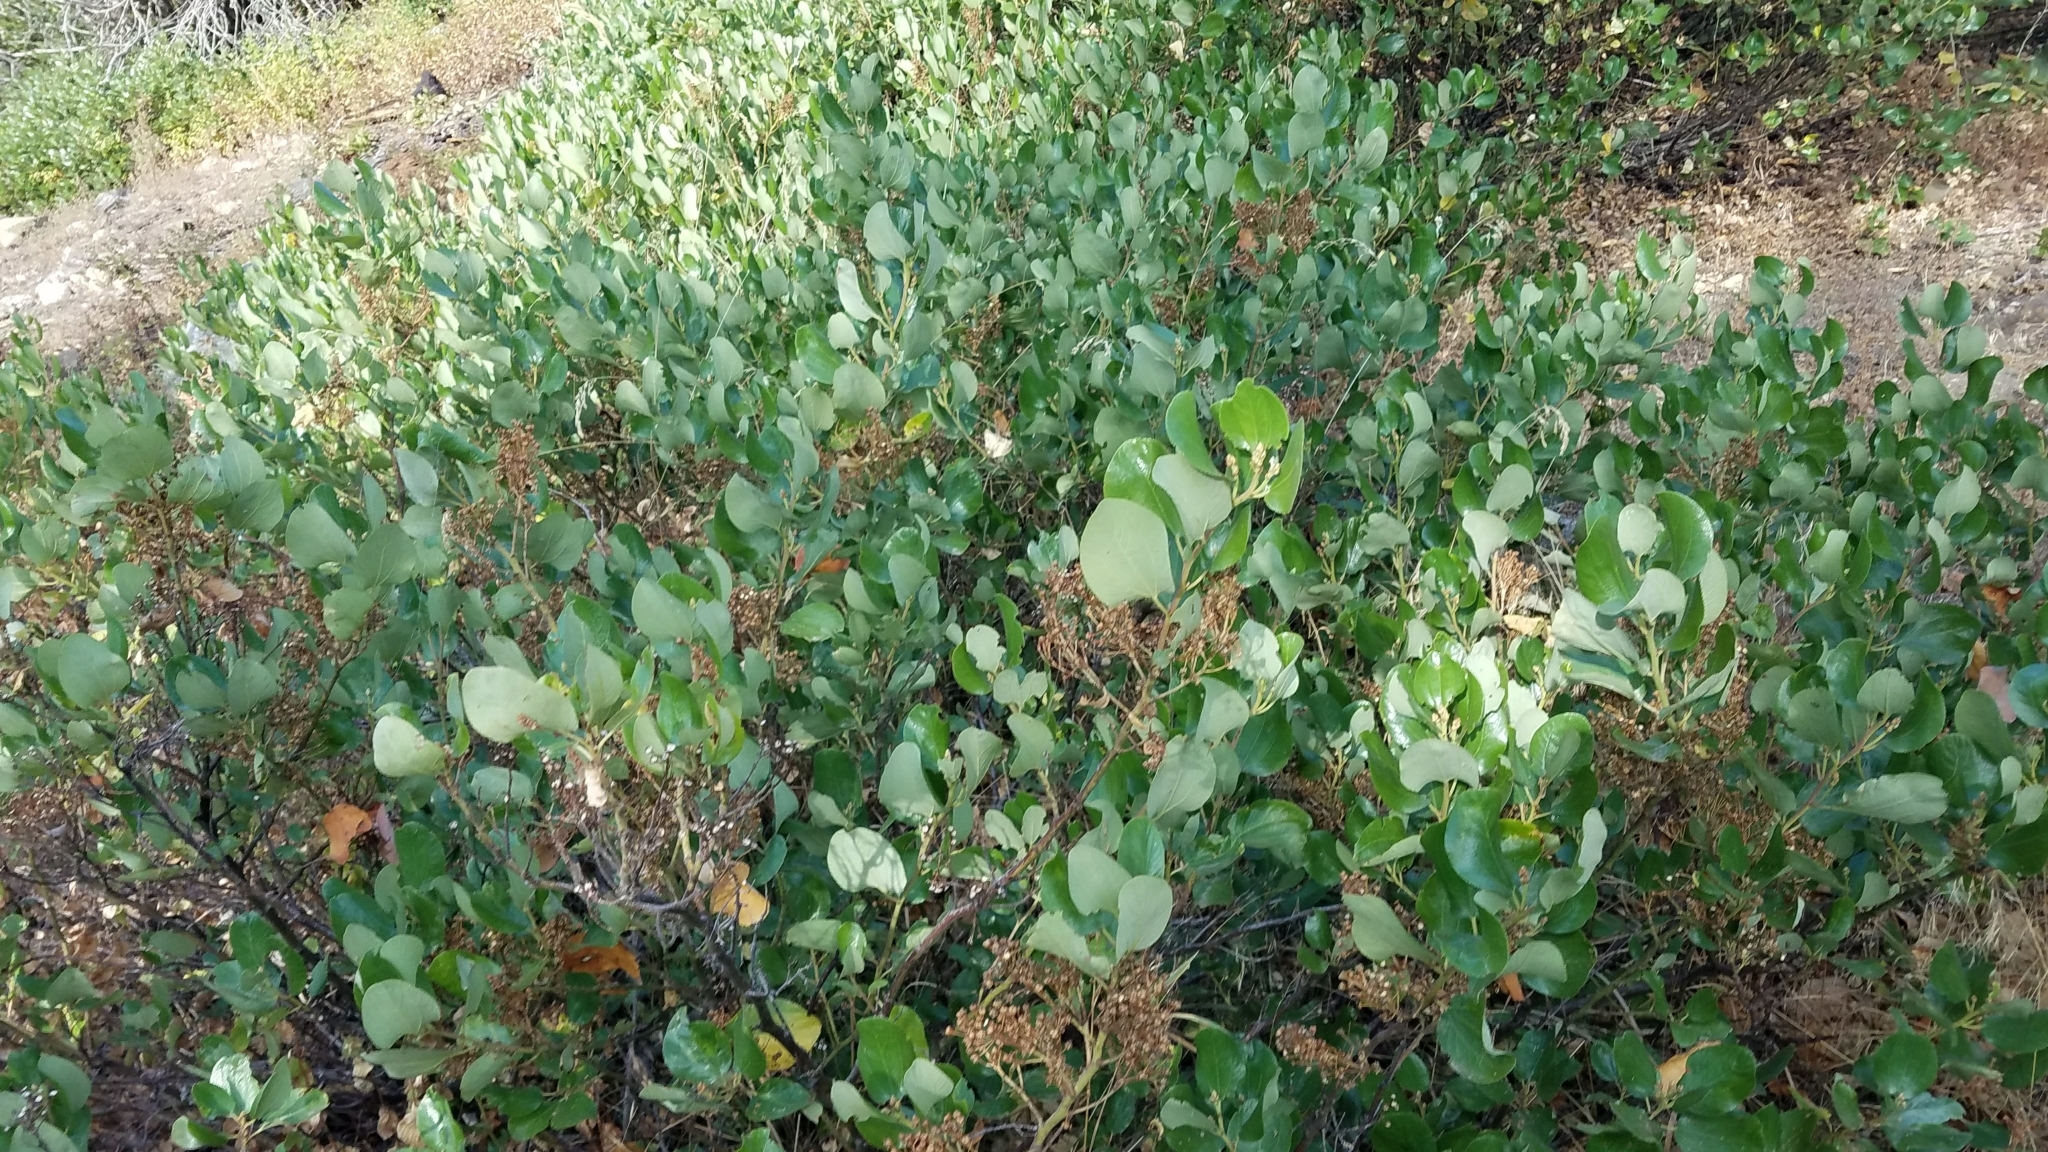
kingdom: Plantae
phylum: Tracheophyta
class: Magnoliopsida
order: Rosales
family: Rhamnaceae
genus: Ceanothus
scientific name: Ceanothus velutinus
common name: Snowbrush
